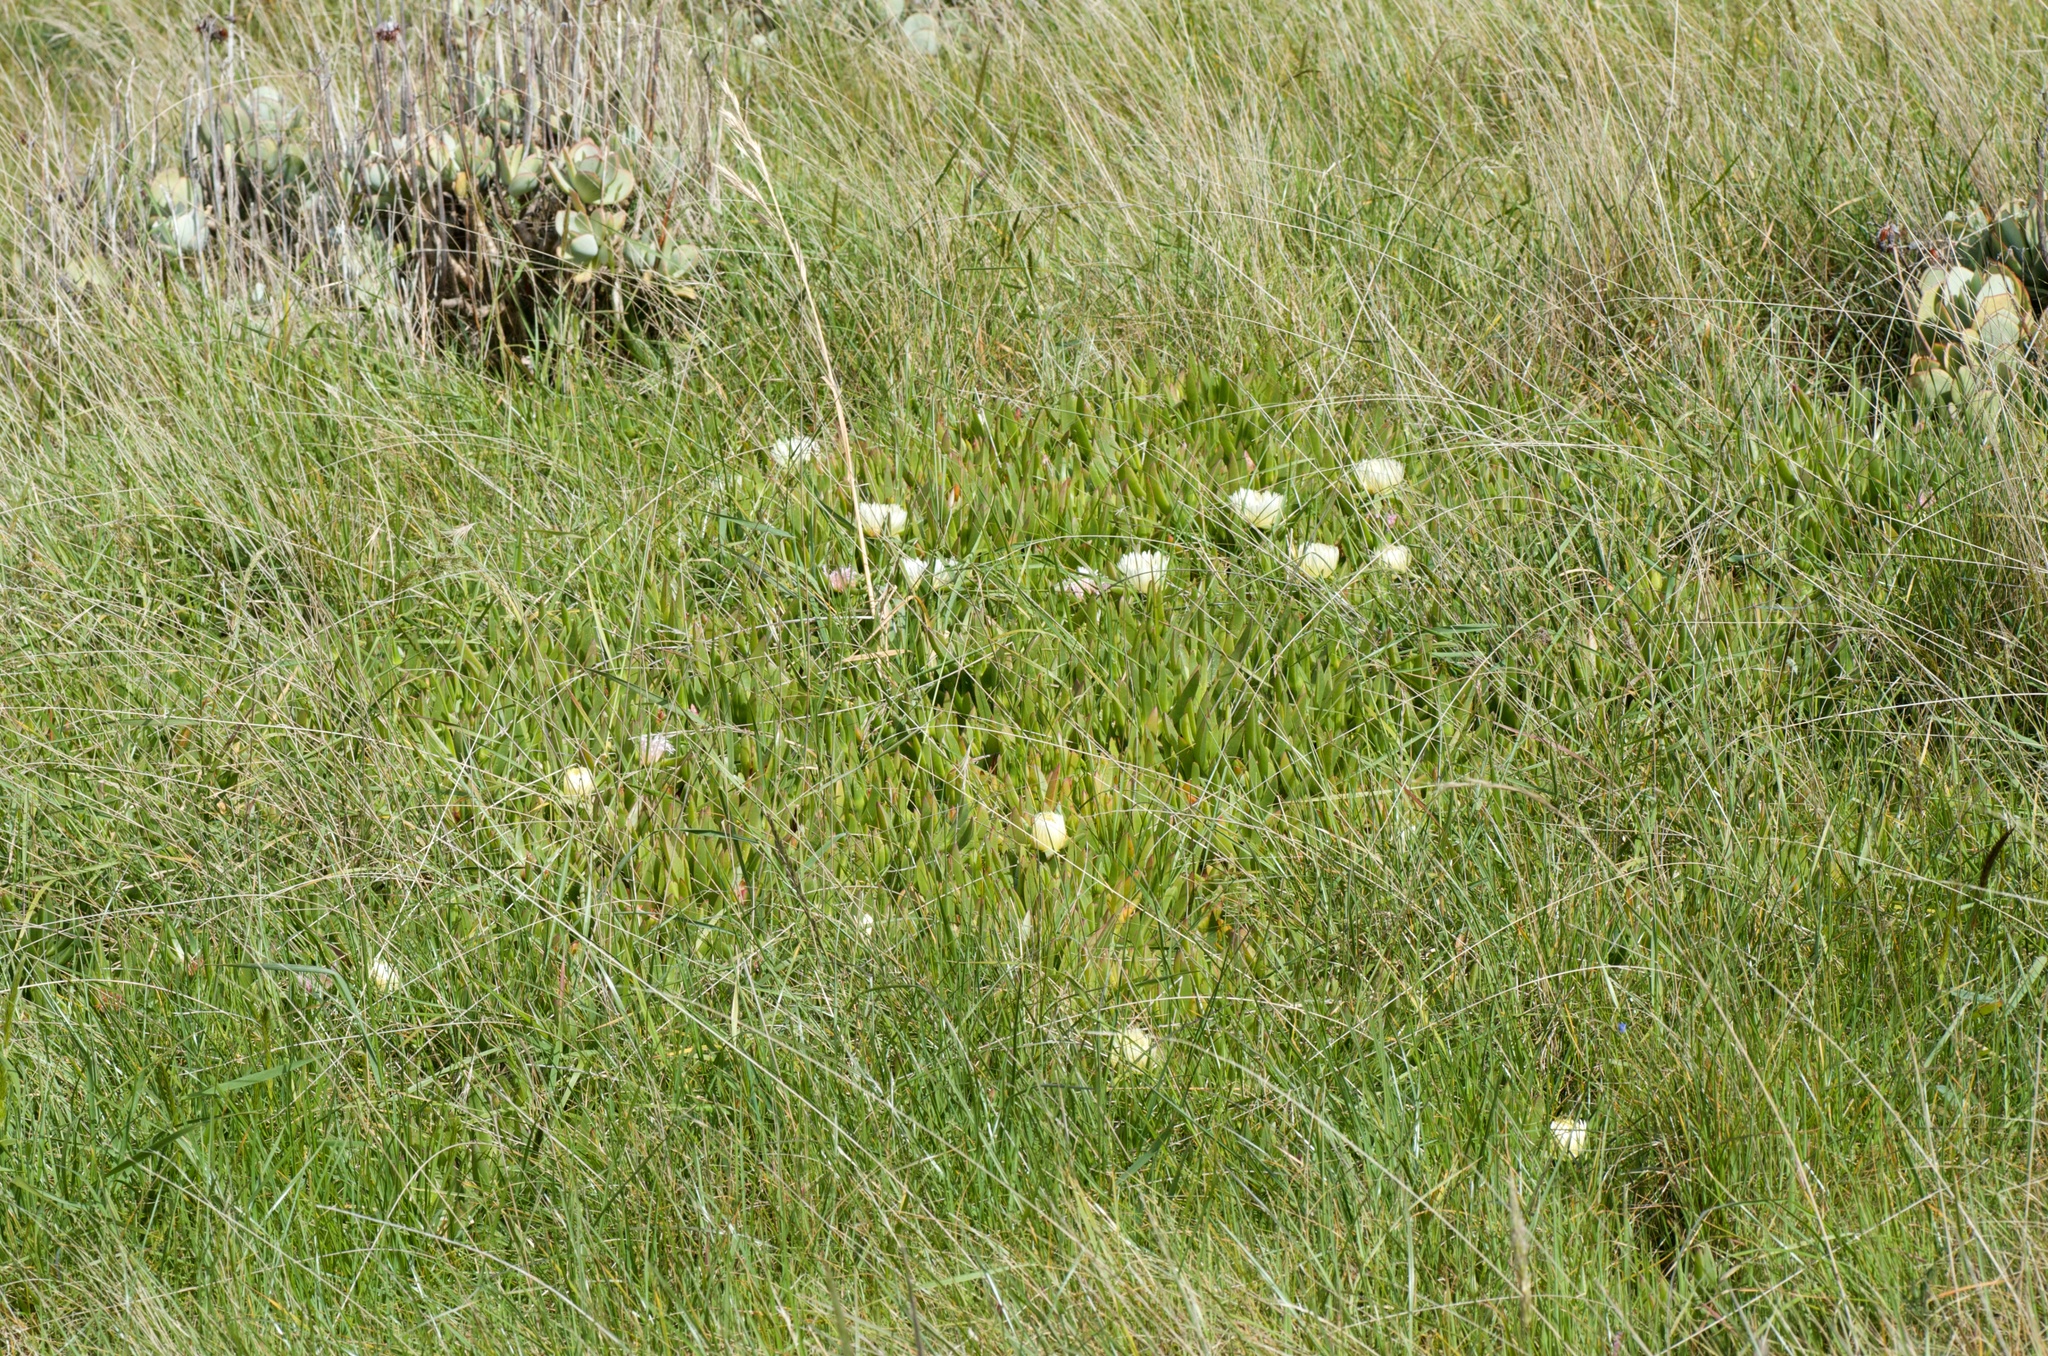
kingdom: Plantae
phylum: Tracheophyta
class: Magnoliopsida
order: Caryophyllales
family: Aizoaceae
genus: Carpobrotus
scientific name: Carpobrotus edulis
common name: Hottentot-fig
